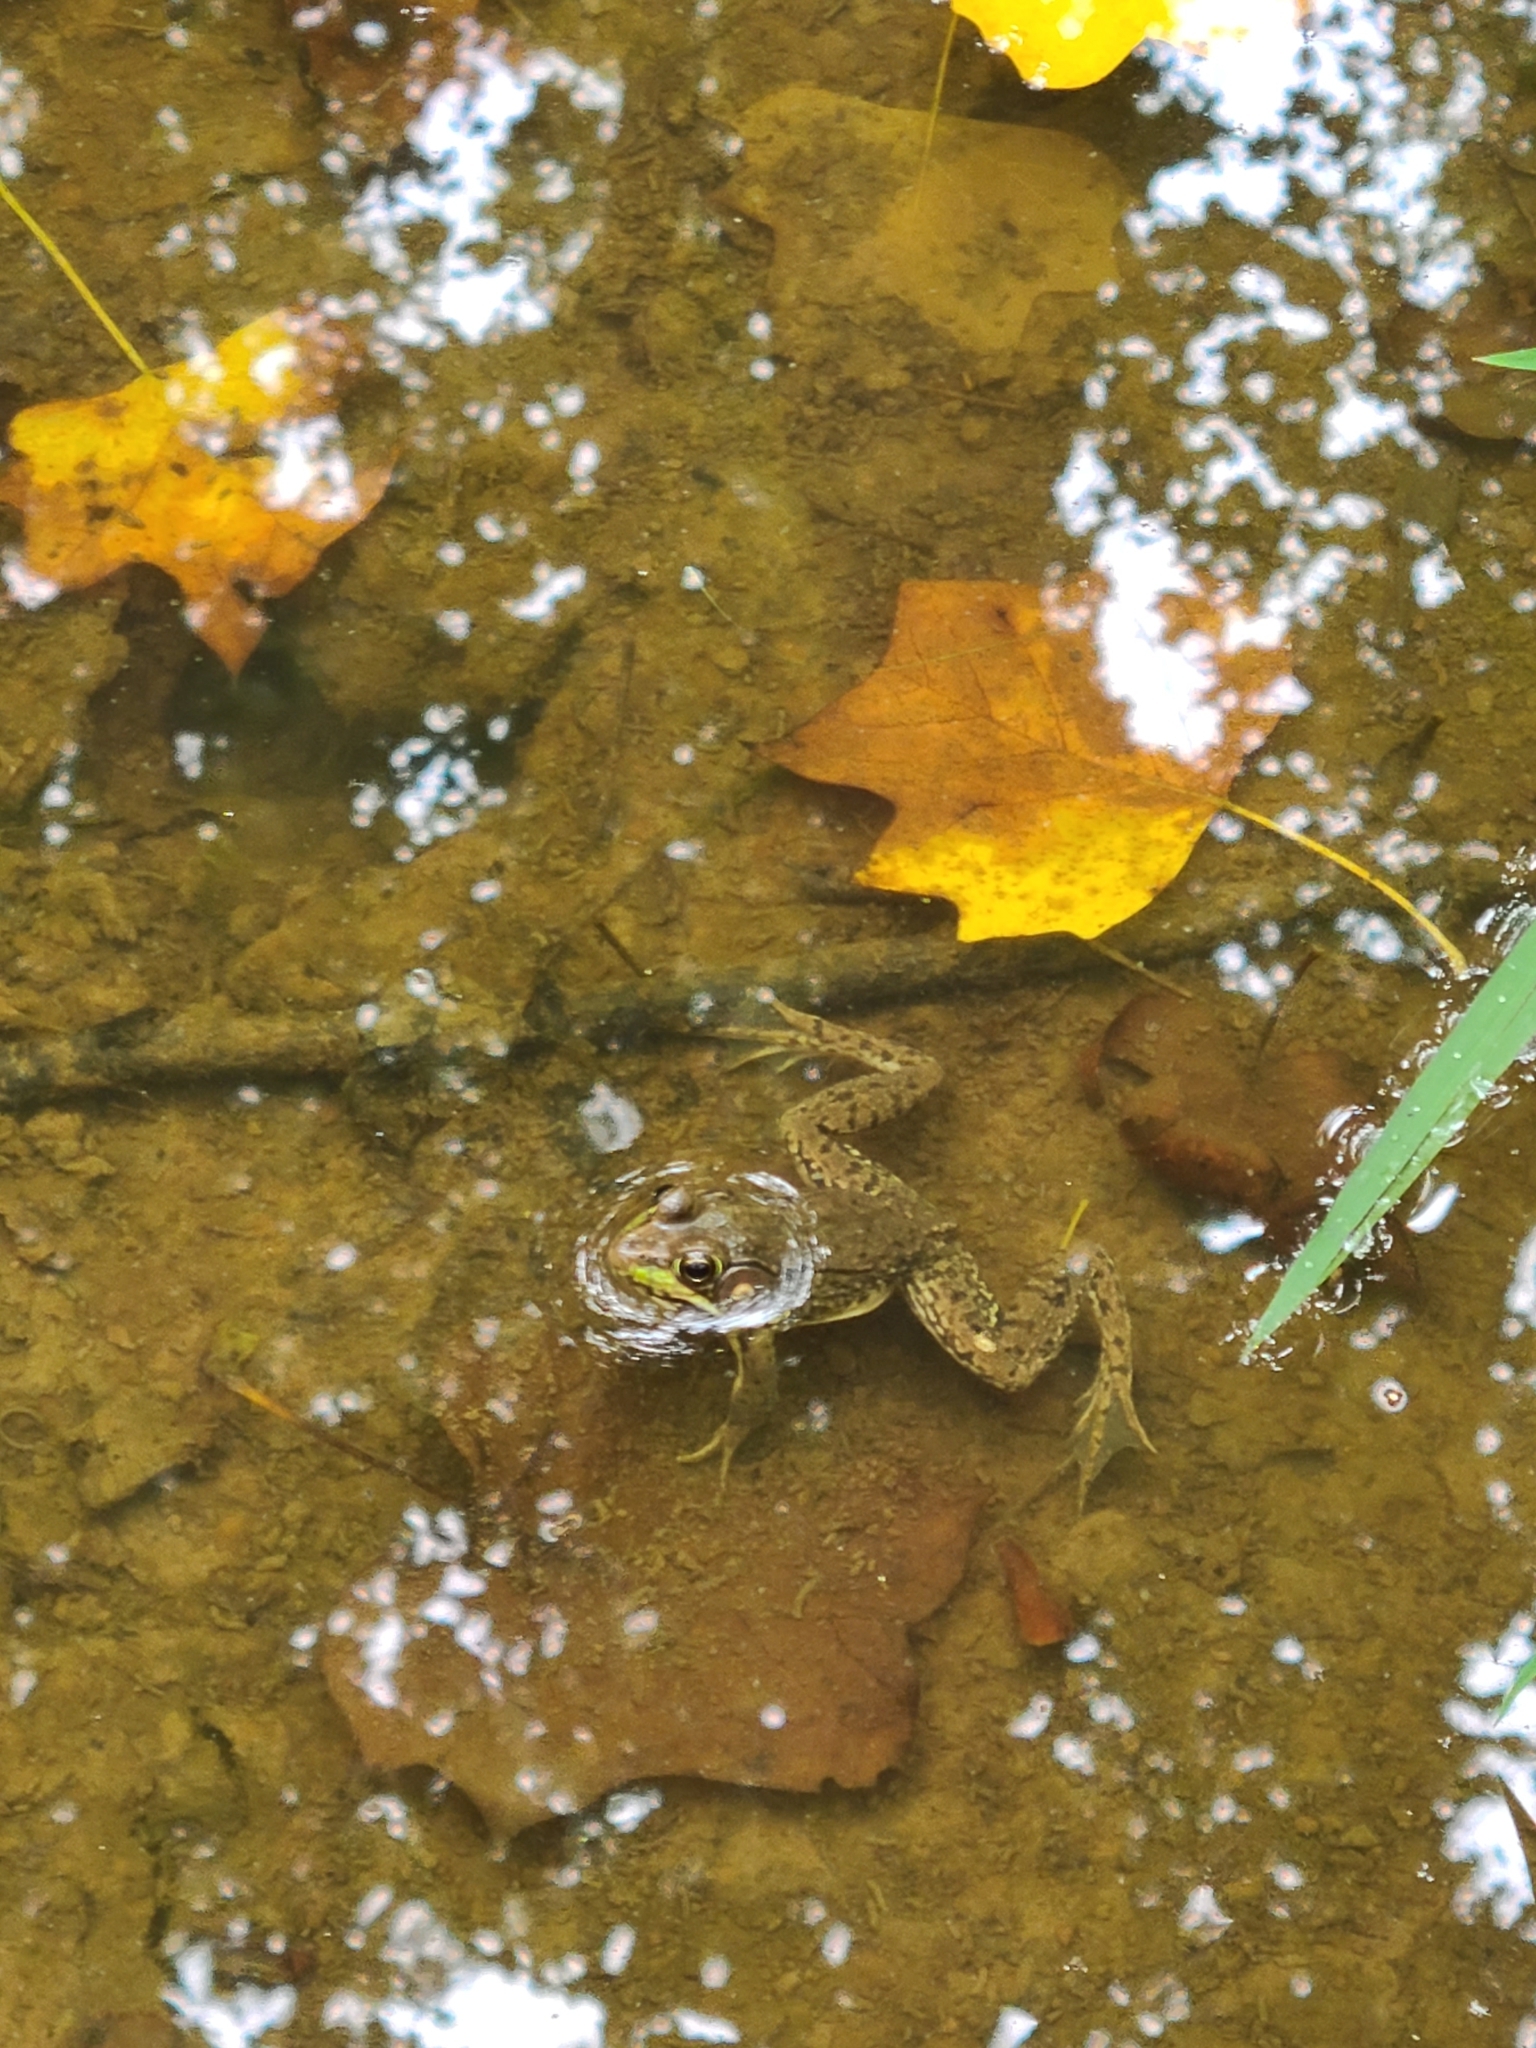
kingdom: Animalia
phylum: Chordata
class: Amphibia
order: Anura
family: Ranidae
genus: Lithobates
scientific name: Lithobates clamitans
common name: Green frog
